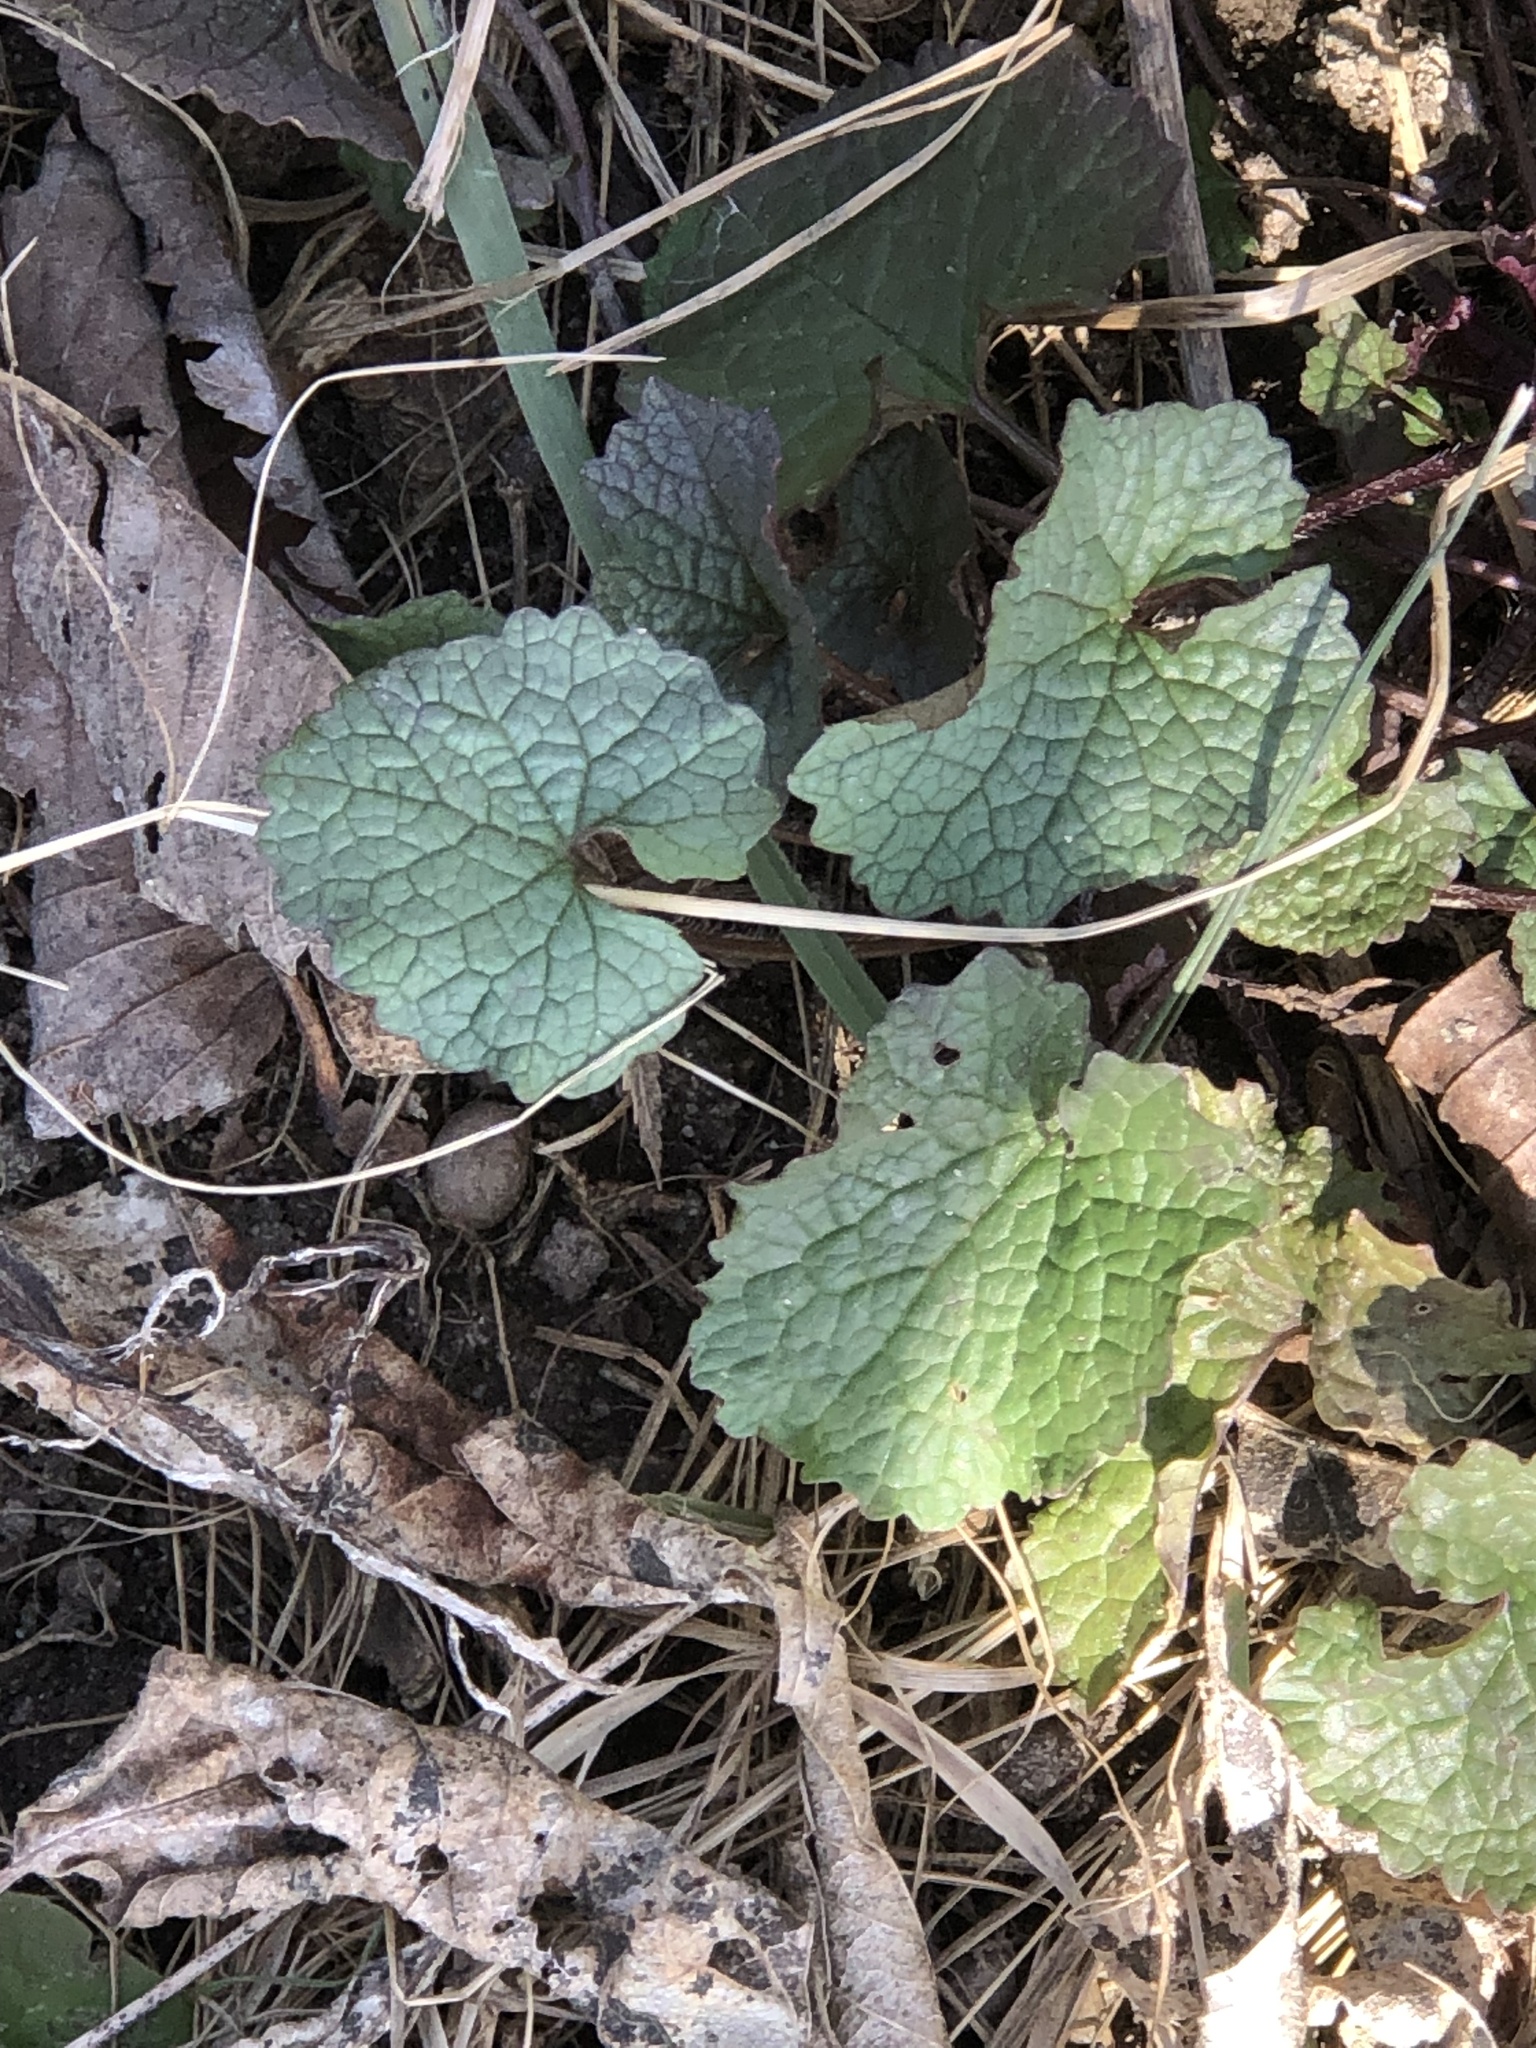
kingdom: Plantae
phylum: Tracheophyta
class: Magnoliopsida
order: Brassicales
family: Brassicaceae
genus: Alliaria
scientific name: Alliaria petiolata
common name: Garlic mustard
